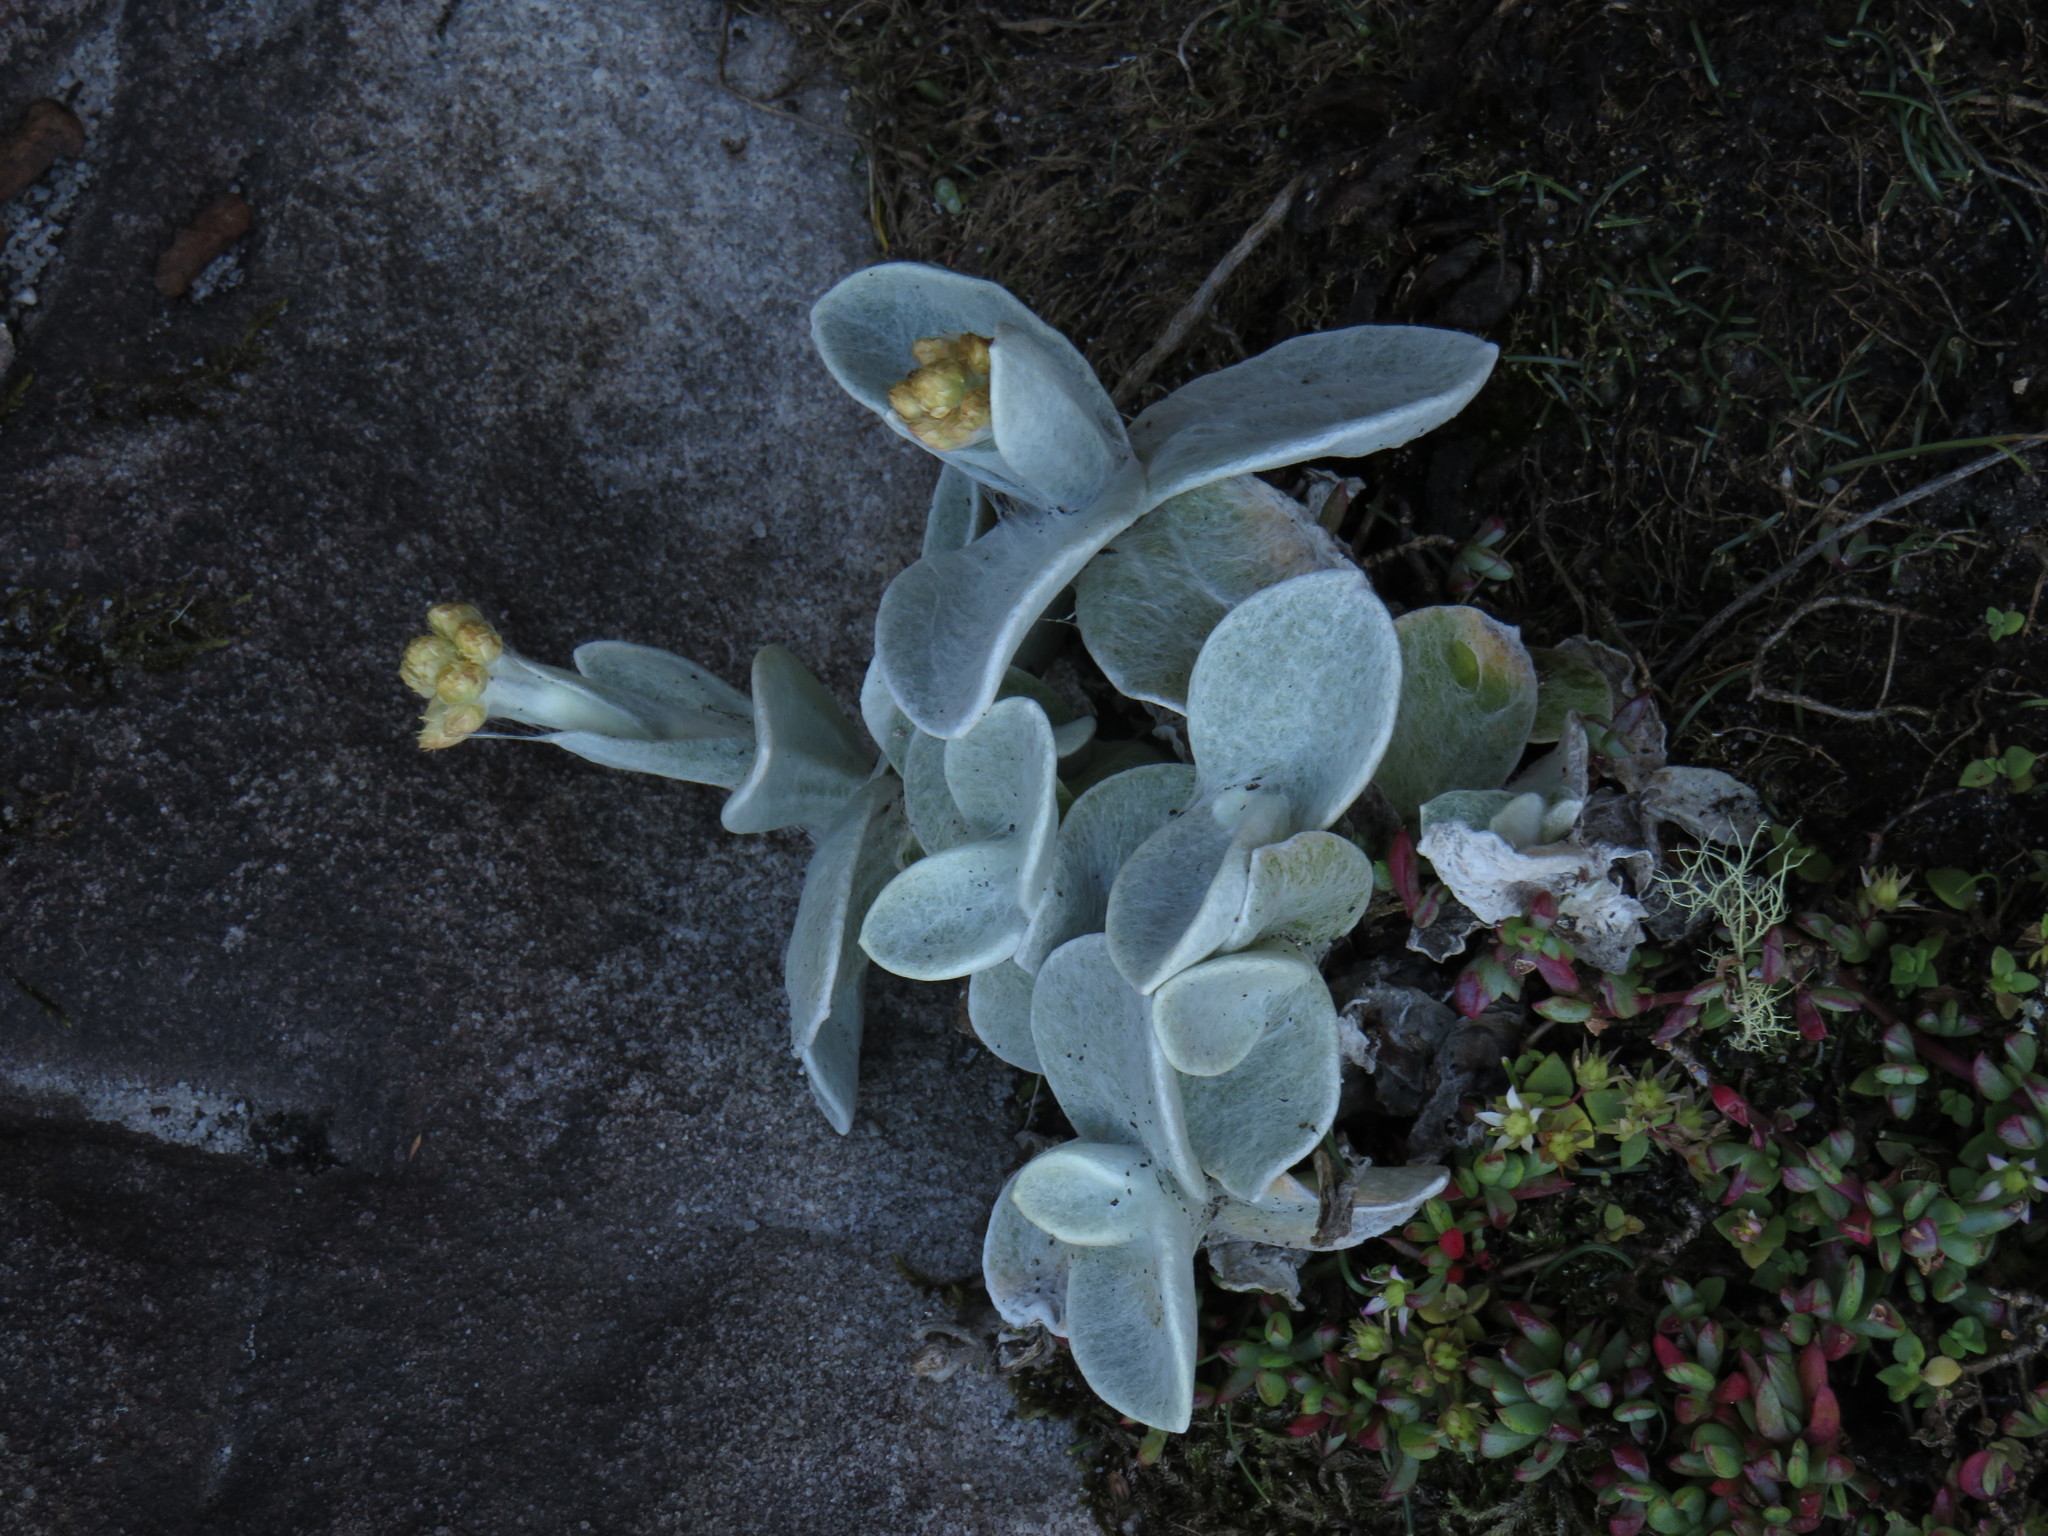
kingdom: Plantae
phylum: Tracheophyta
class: Magnoliopsida
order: Asterales
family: Asteraceae
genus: Helichrysum
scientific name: Helichrysum grandiflorum
